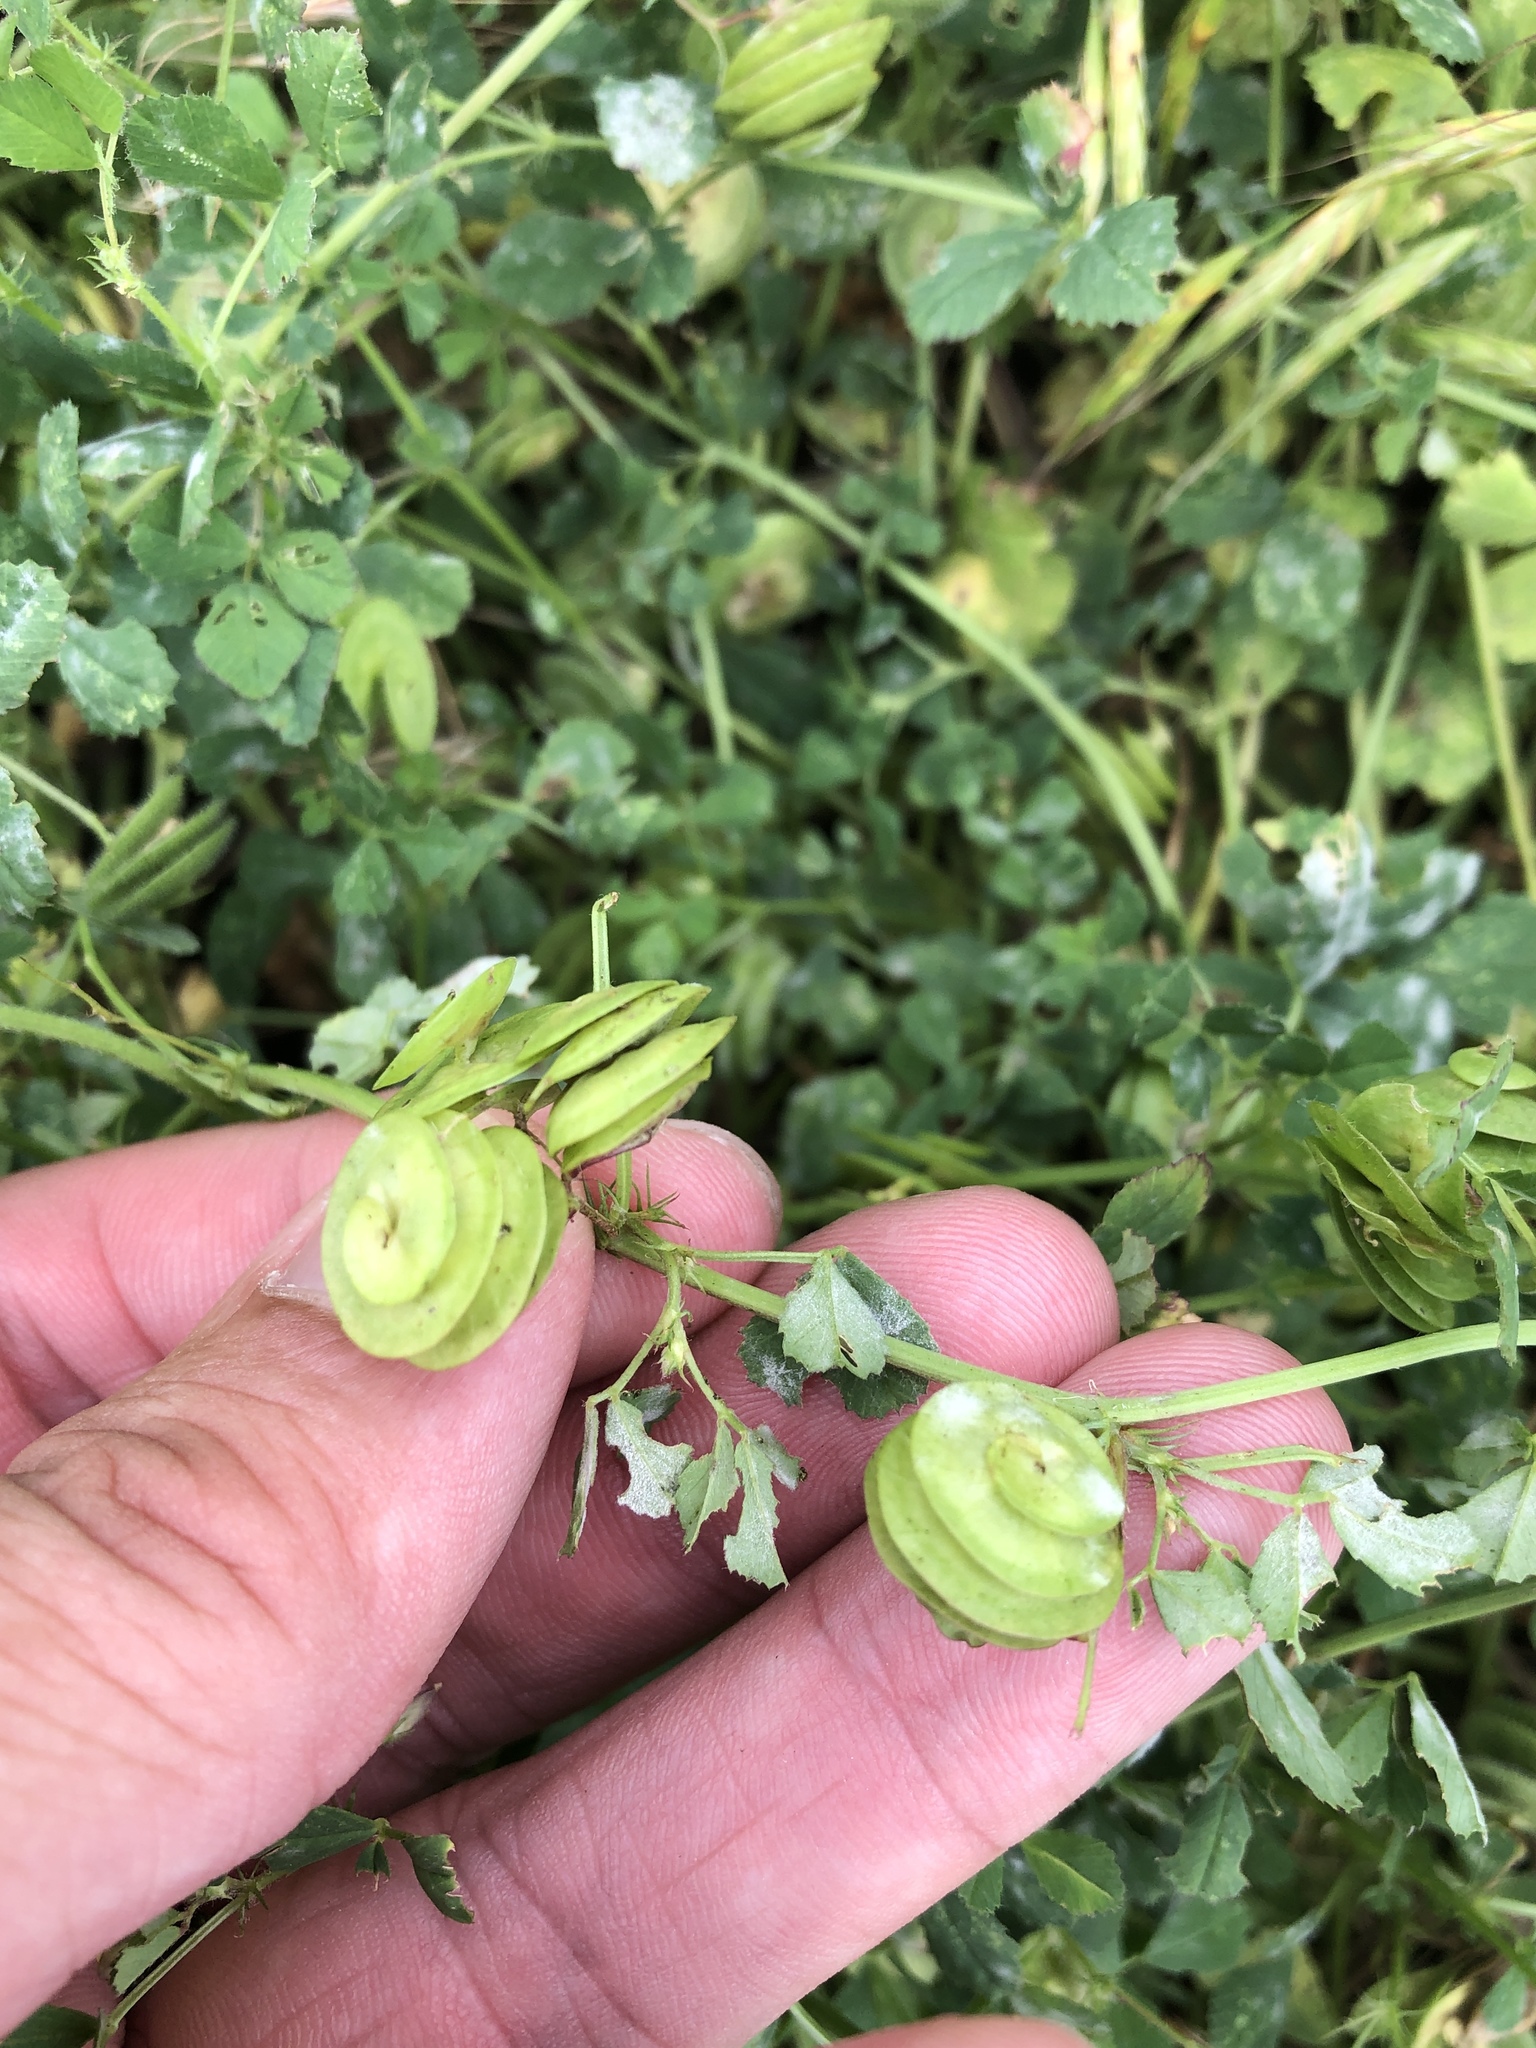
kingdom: Plantae
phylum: Tracheophyta
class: Magnoliopsida
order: Fabales
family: Fabaceae
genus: Medicago
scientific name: Medicago orbicularis
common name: Button medick
